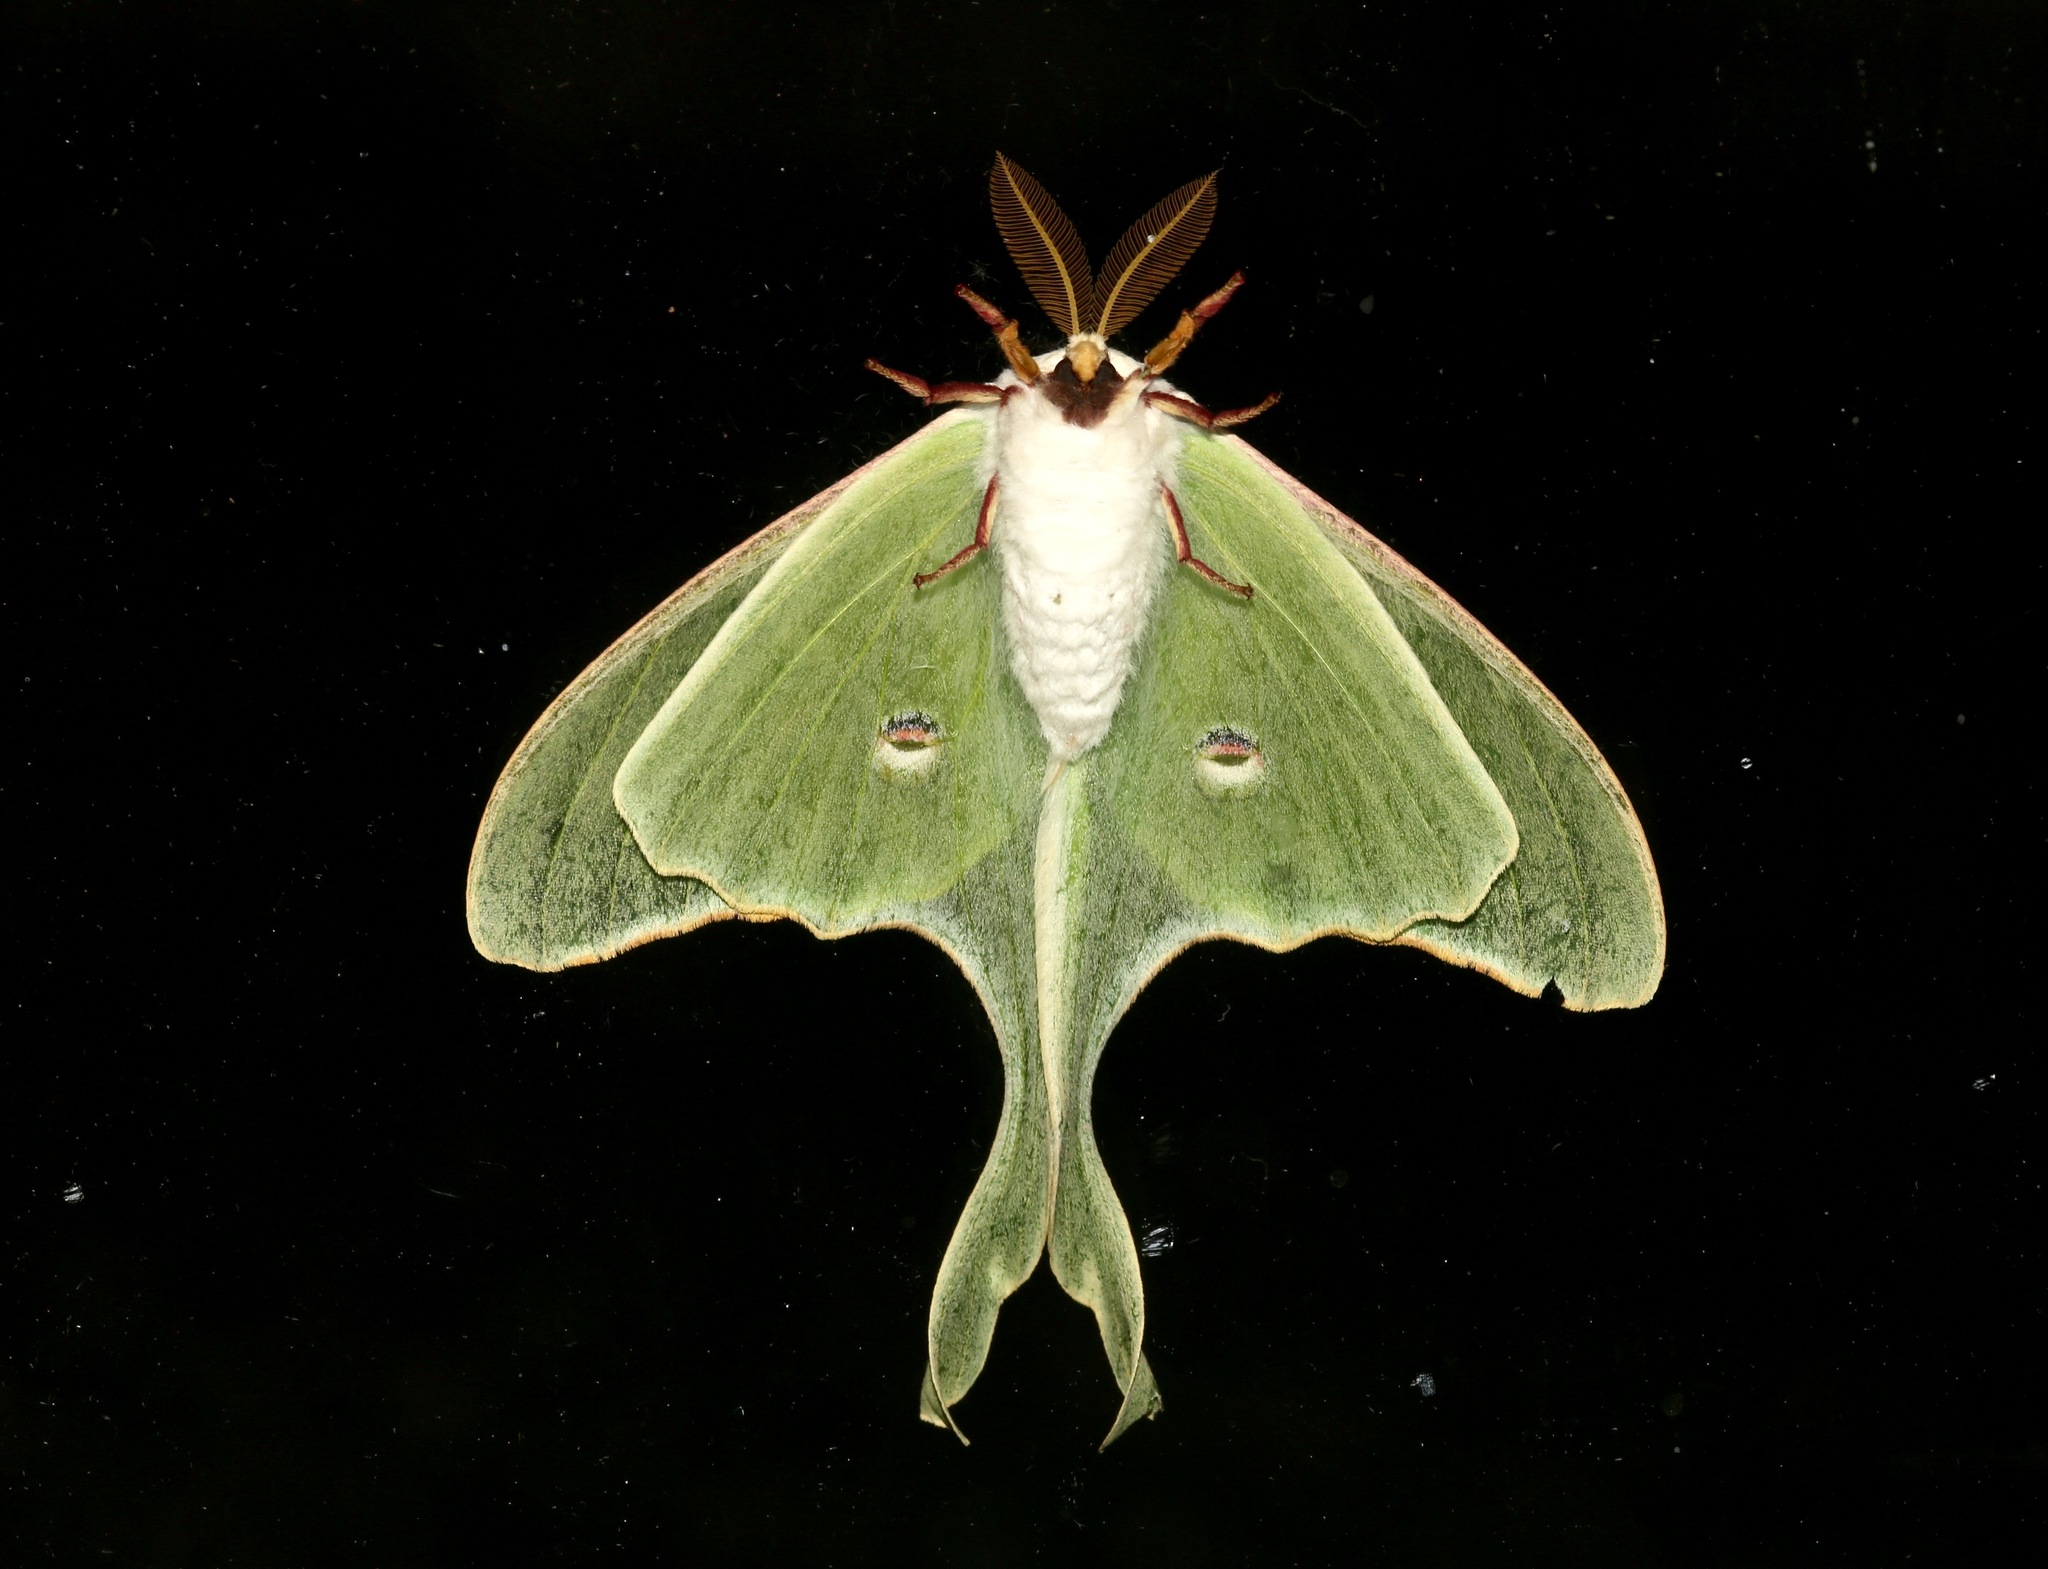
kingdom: Animalia
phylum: Arthropoda
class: Insecta
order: Lepidoptera
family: Saturniidae
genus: Actias
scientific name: Actias luna
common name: Luna moth
